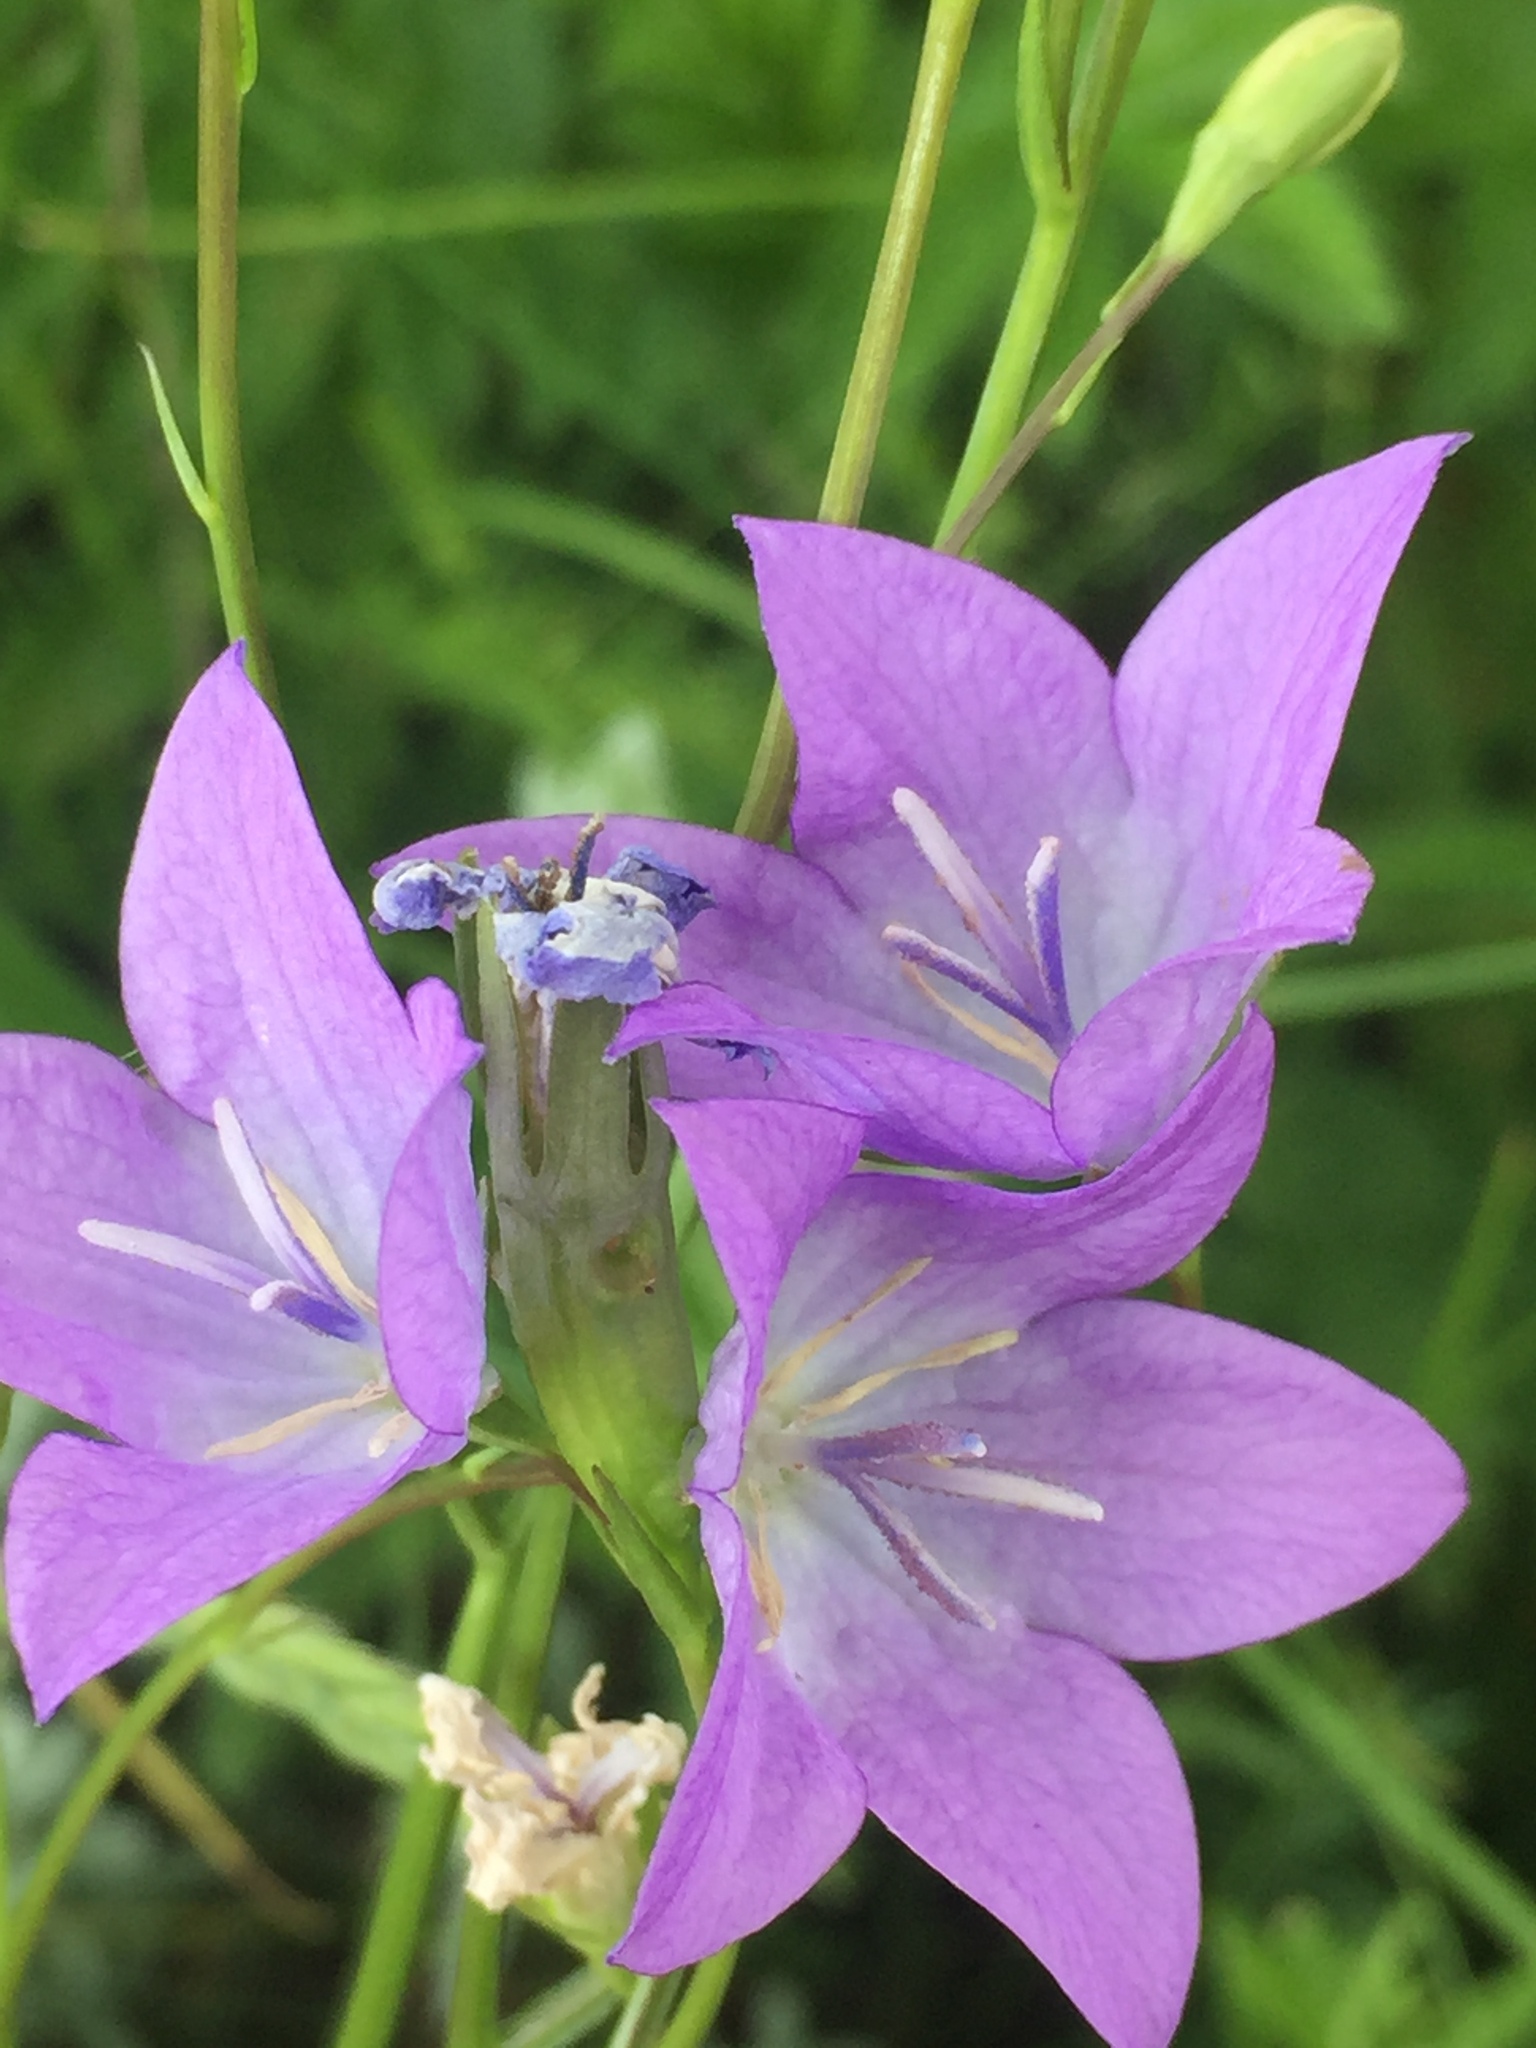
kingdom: Plantae
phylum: Tracheophyta
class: Magnoliopsida
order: Asterales
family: Campanulaceae
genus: Campanula
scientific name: Campanula stevenii
